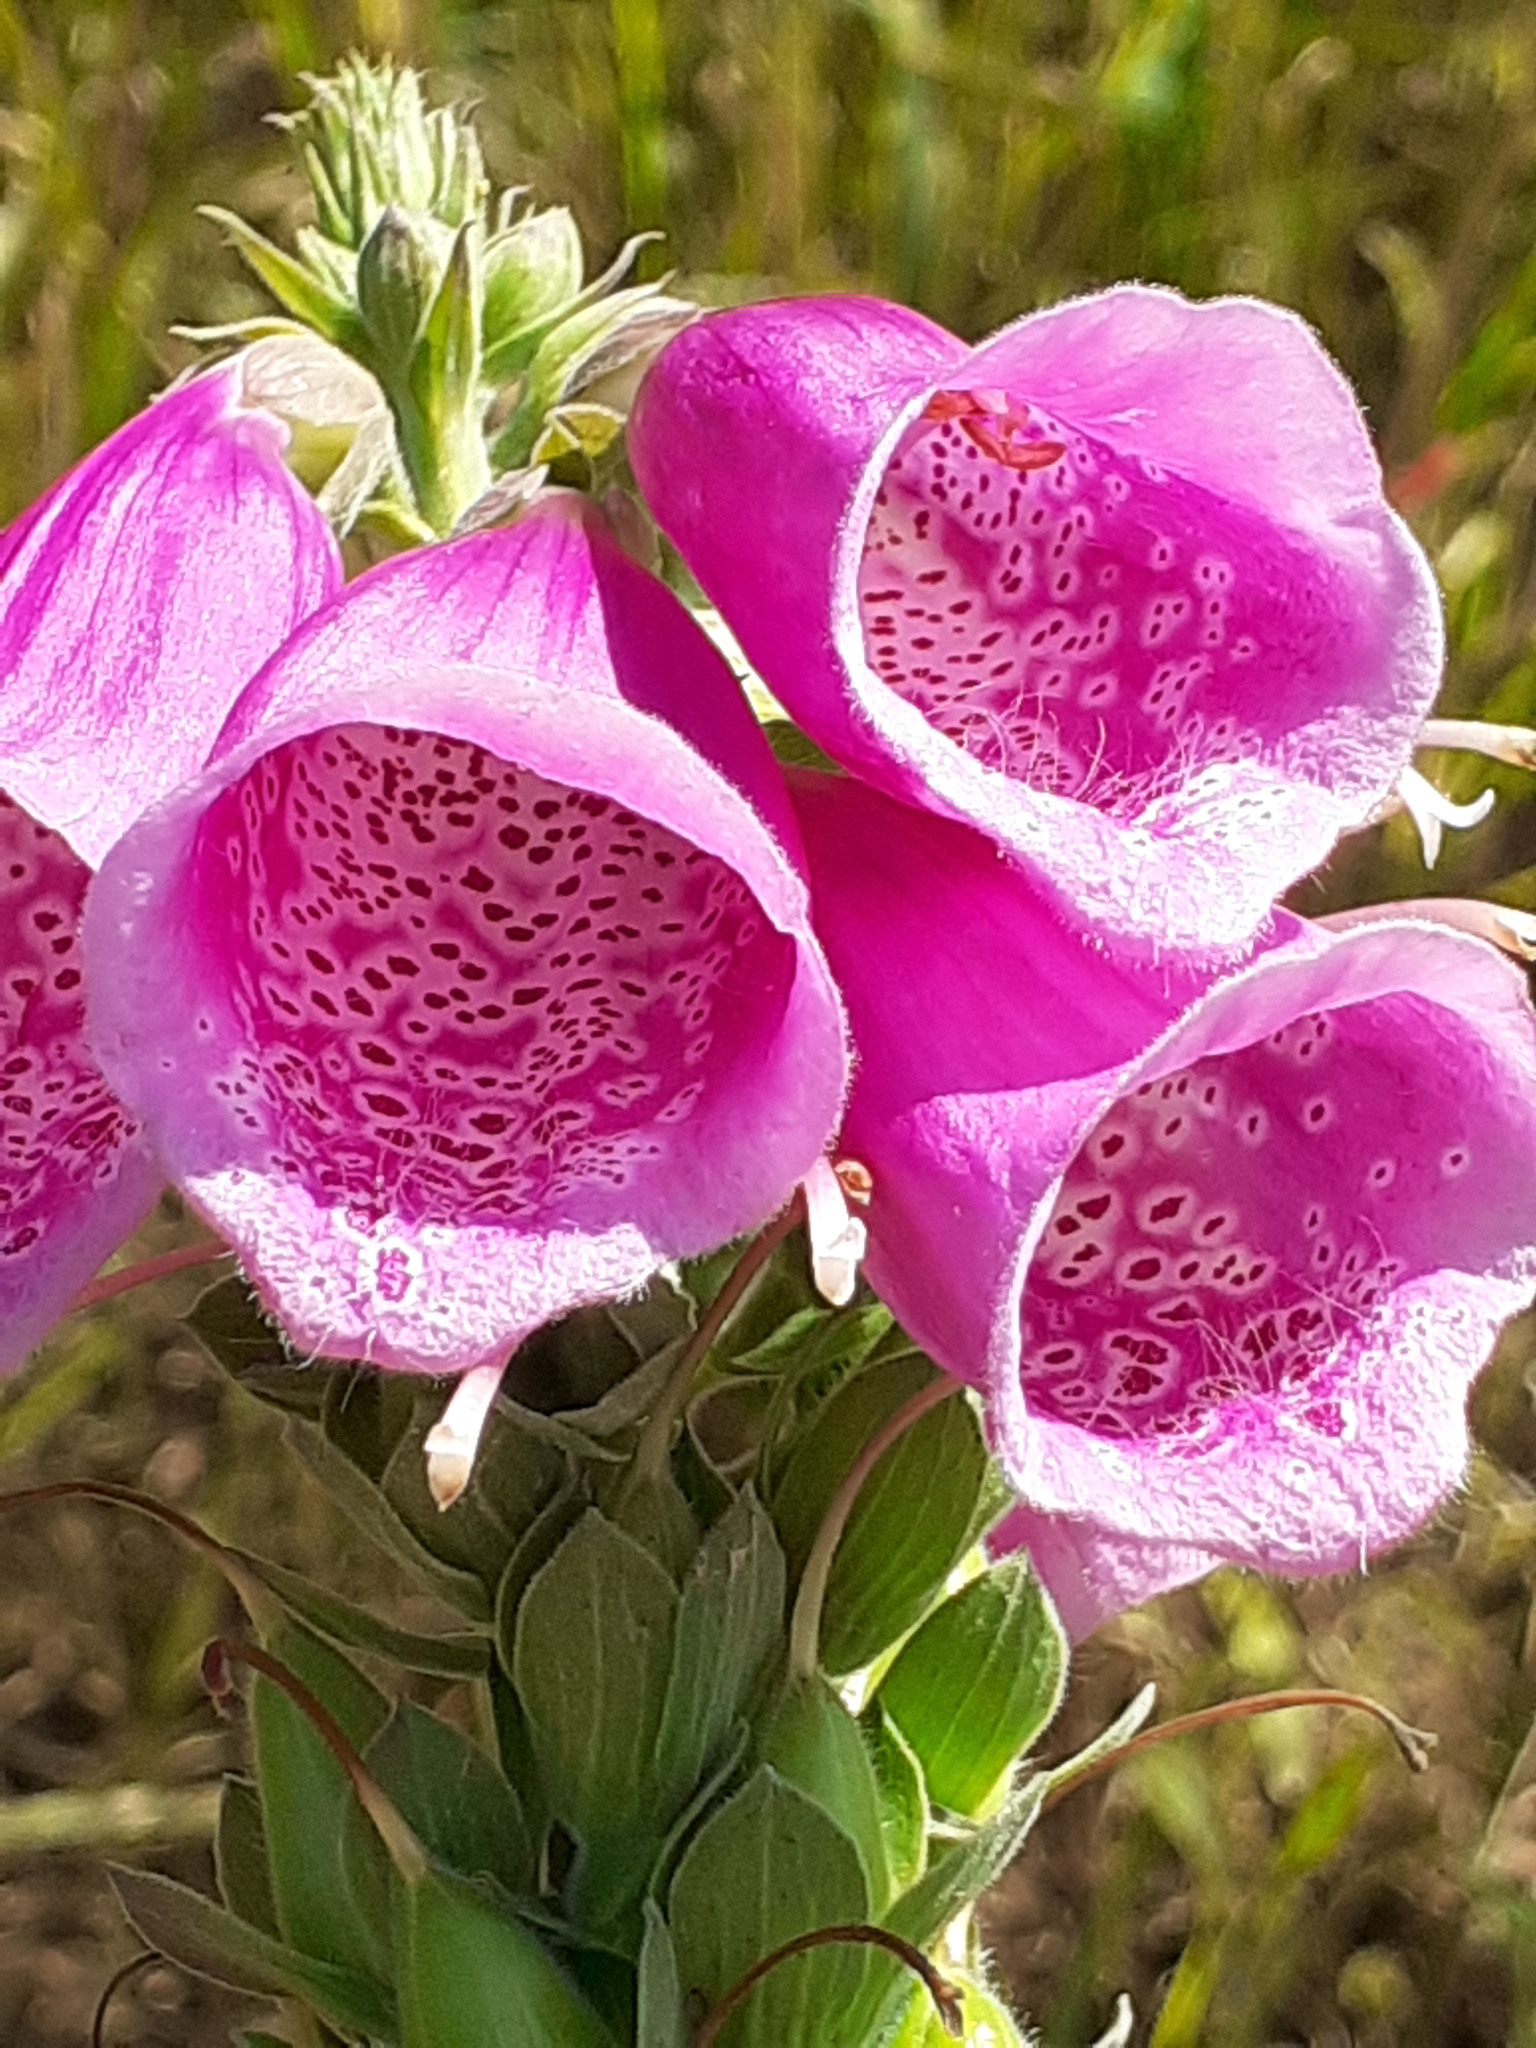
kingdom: Plantae
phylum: Tracheophyta
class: Magnoliopsida
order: Lamiales
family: Plantaginaceae
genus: Digitalis
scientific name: Digitalis purpurea
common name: Foxglove
